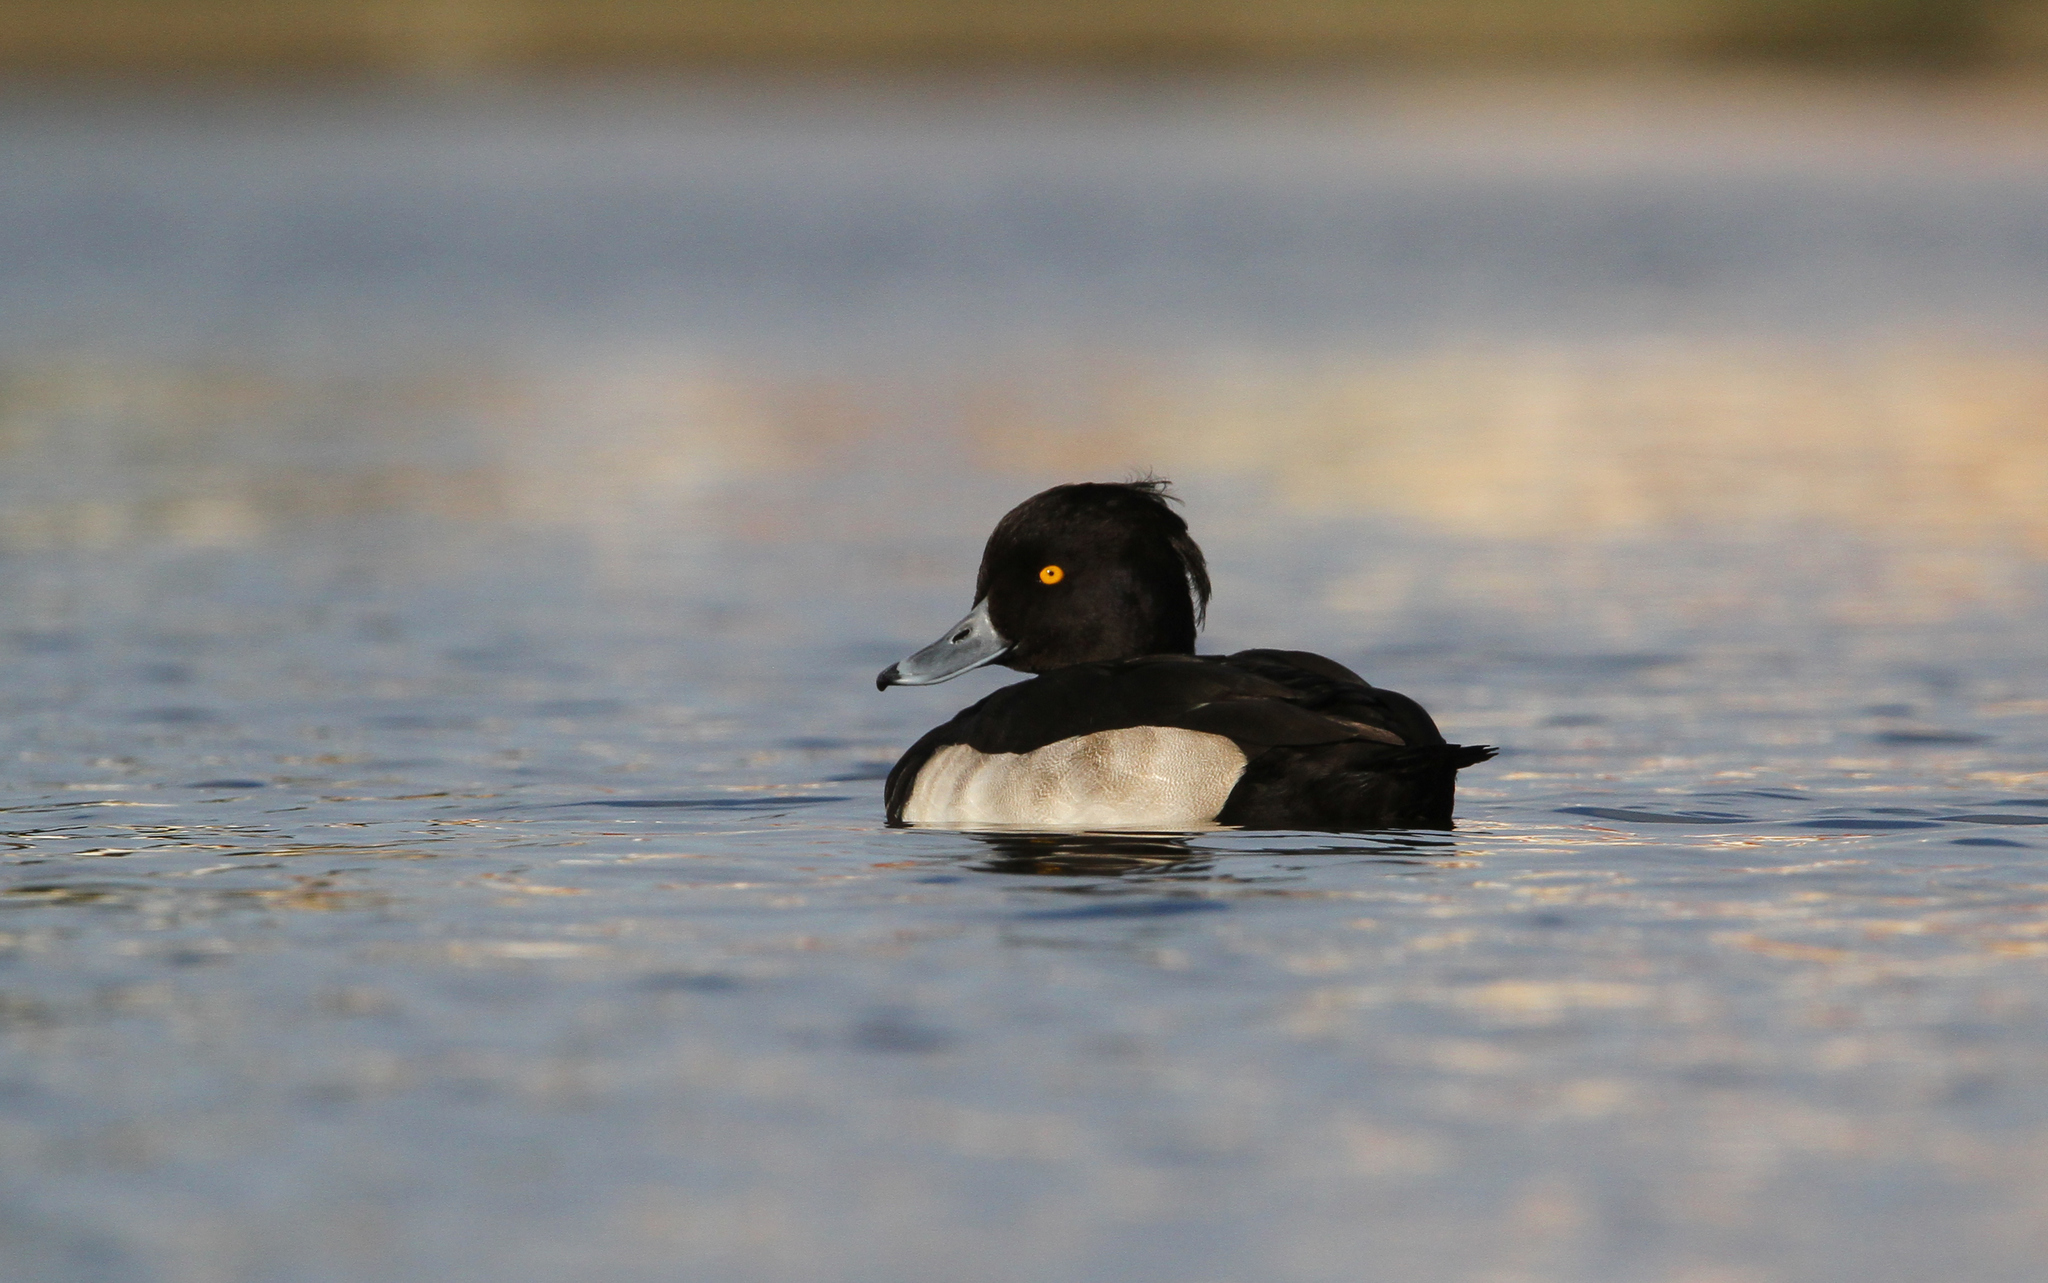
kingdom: Animalia
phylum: Chordata
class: Aves
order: Anseriformes
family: Anatidae
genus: Aythya
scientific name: Aythya fuligula
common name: Tufted duck
